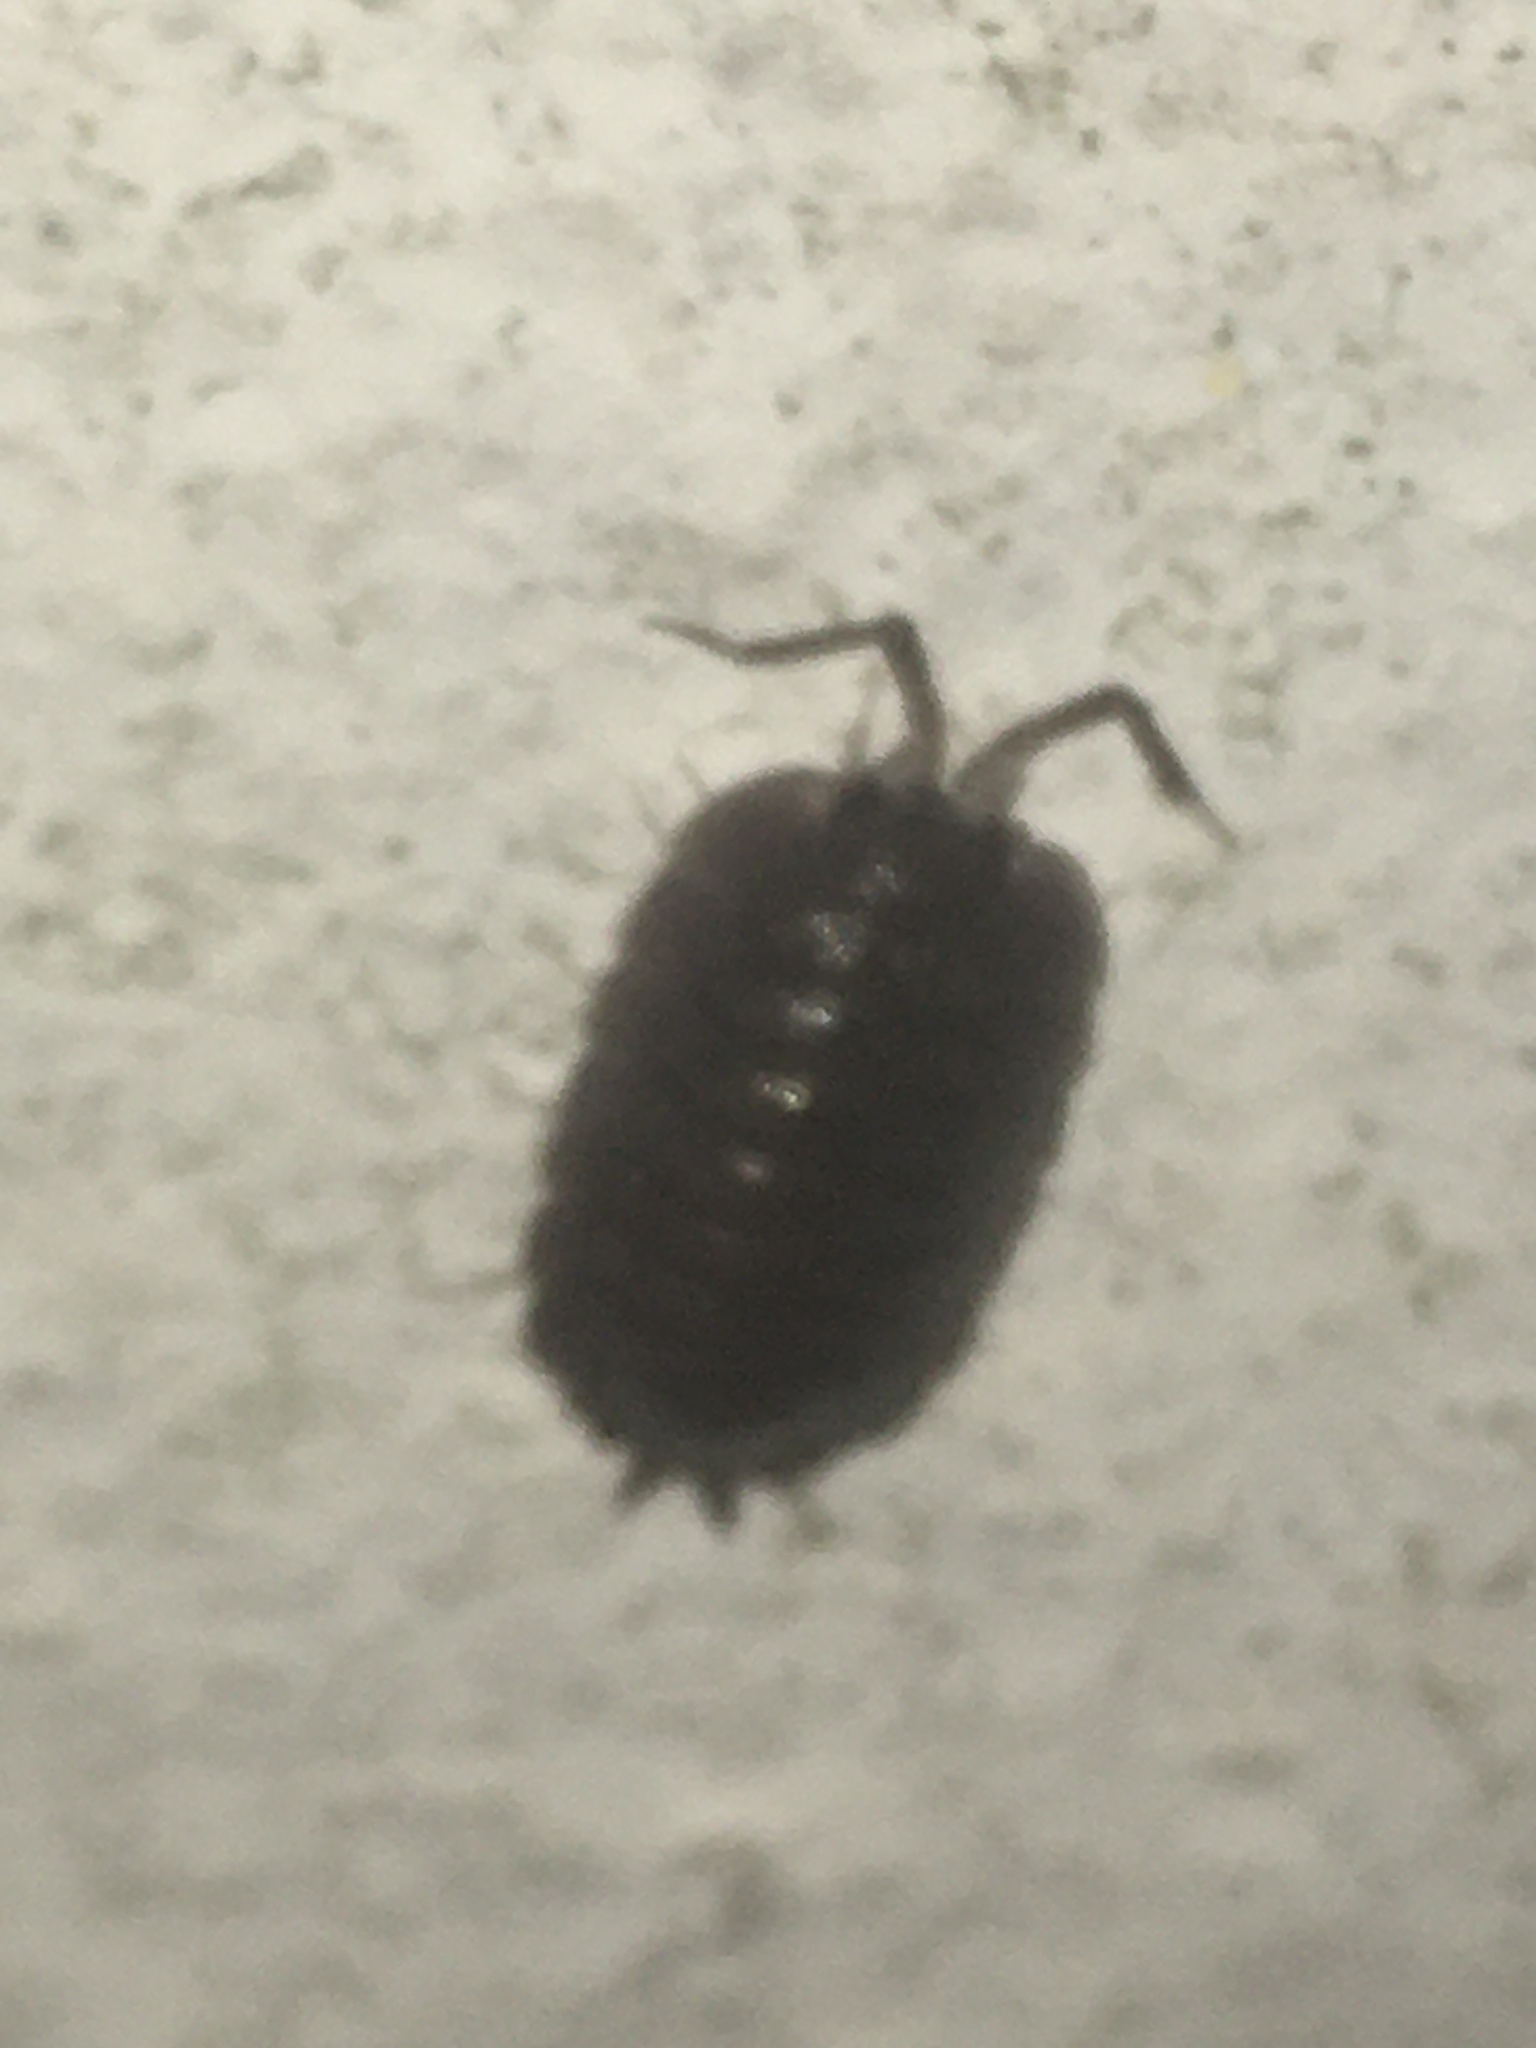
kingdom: Animalia
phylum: Arthropoda
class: Malacostraca
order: Isopoda
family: Porcellionidae
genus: Porcellio
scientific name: Porcellio obsoletus
